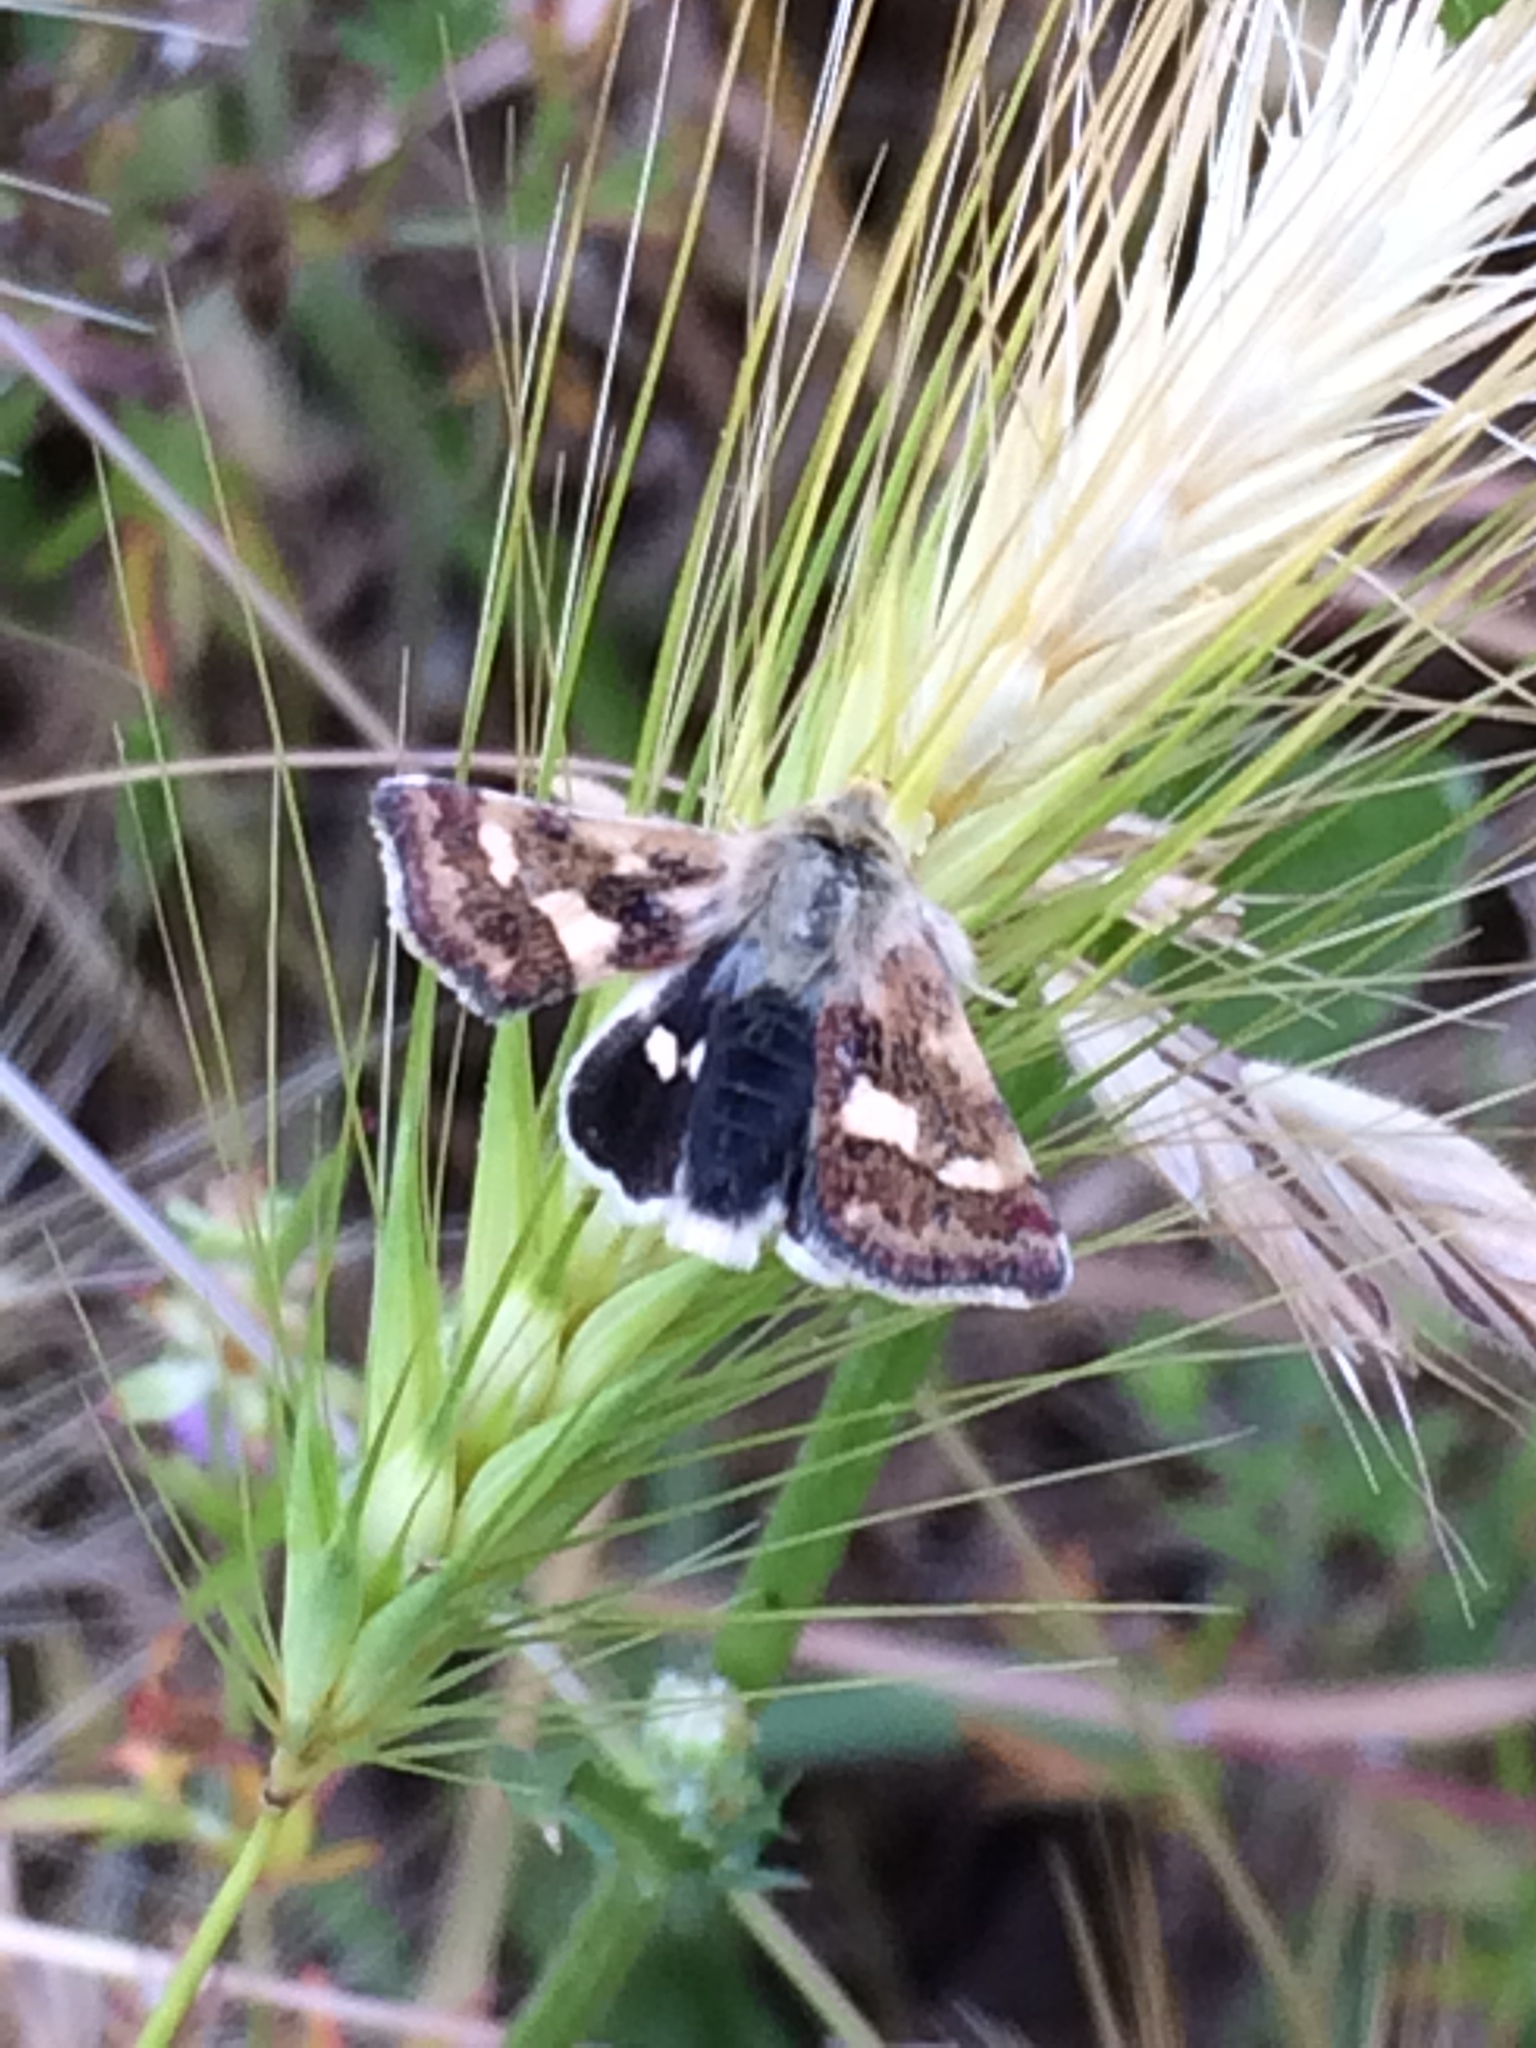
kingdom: Animalia
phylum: Arthropoda
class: Insecta
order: Lepidoptera
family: Noctuidae
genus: Heliothodes
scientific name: Heliothodes diminutiva
